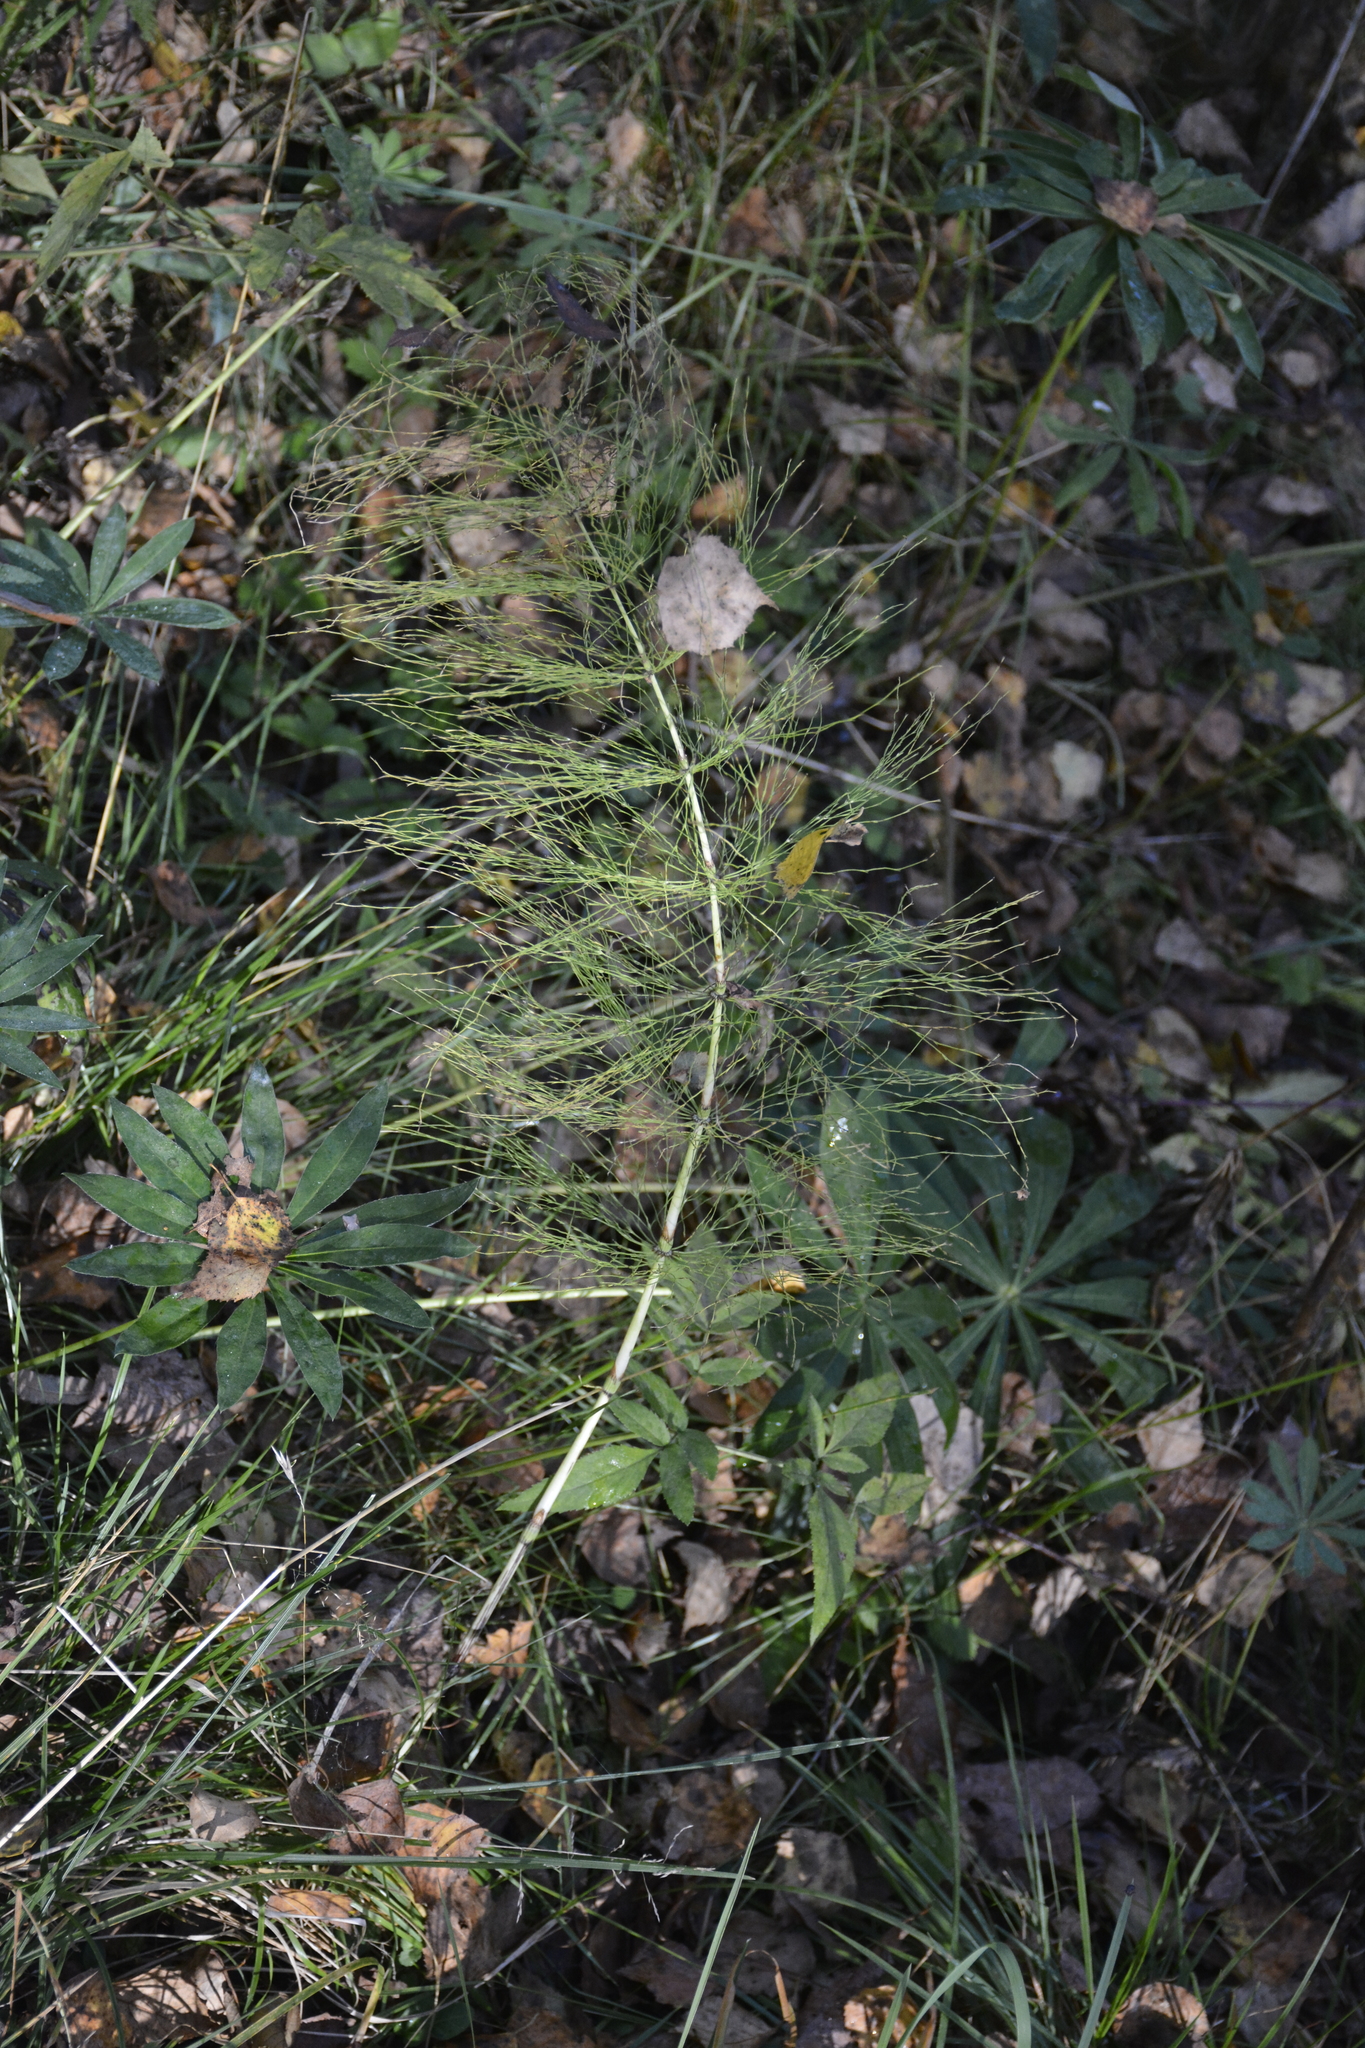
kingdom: Plantae
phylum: Tracheophyta
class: Polypodiopsida
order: Equisetales
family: Equisetaceae
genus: Equisetum
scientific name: Equisetum sylvaticum
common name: Wood horsetail
